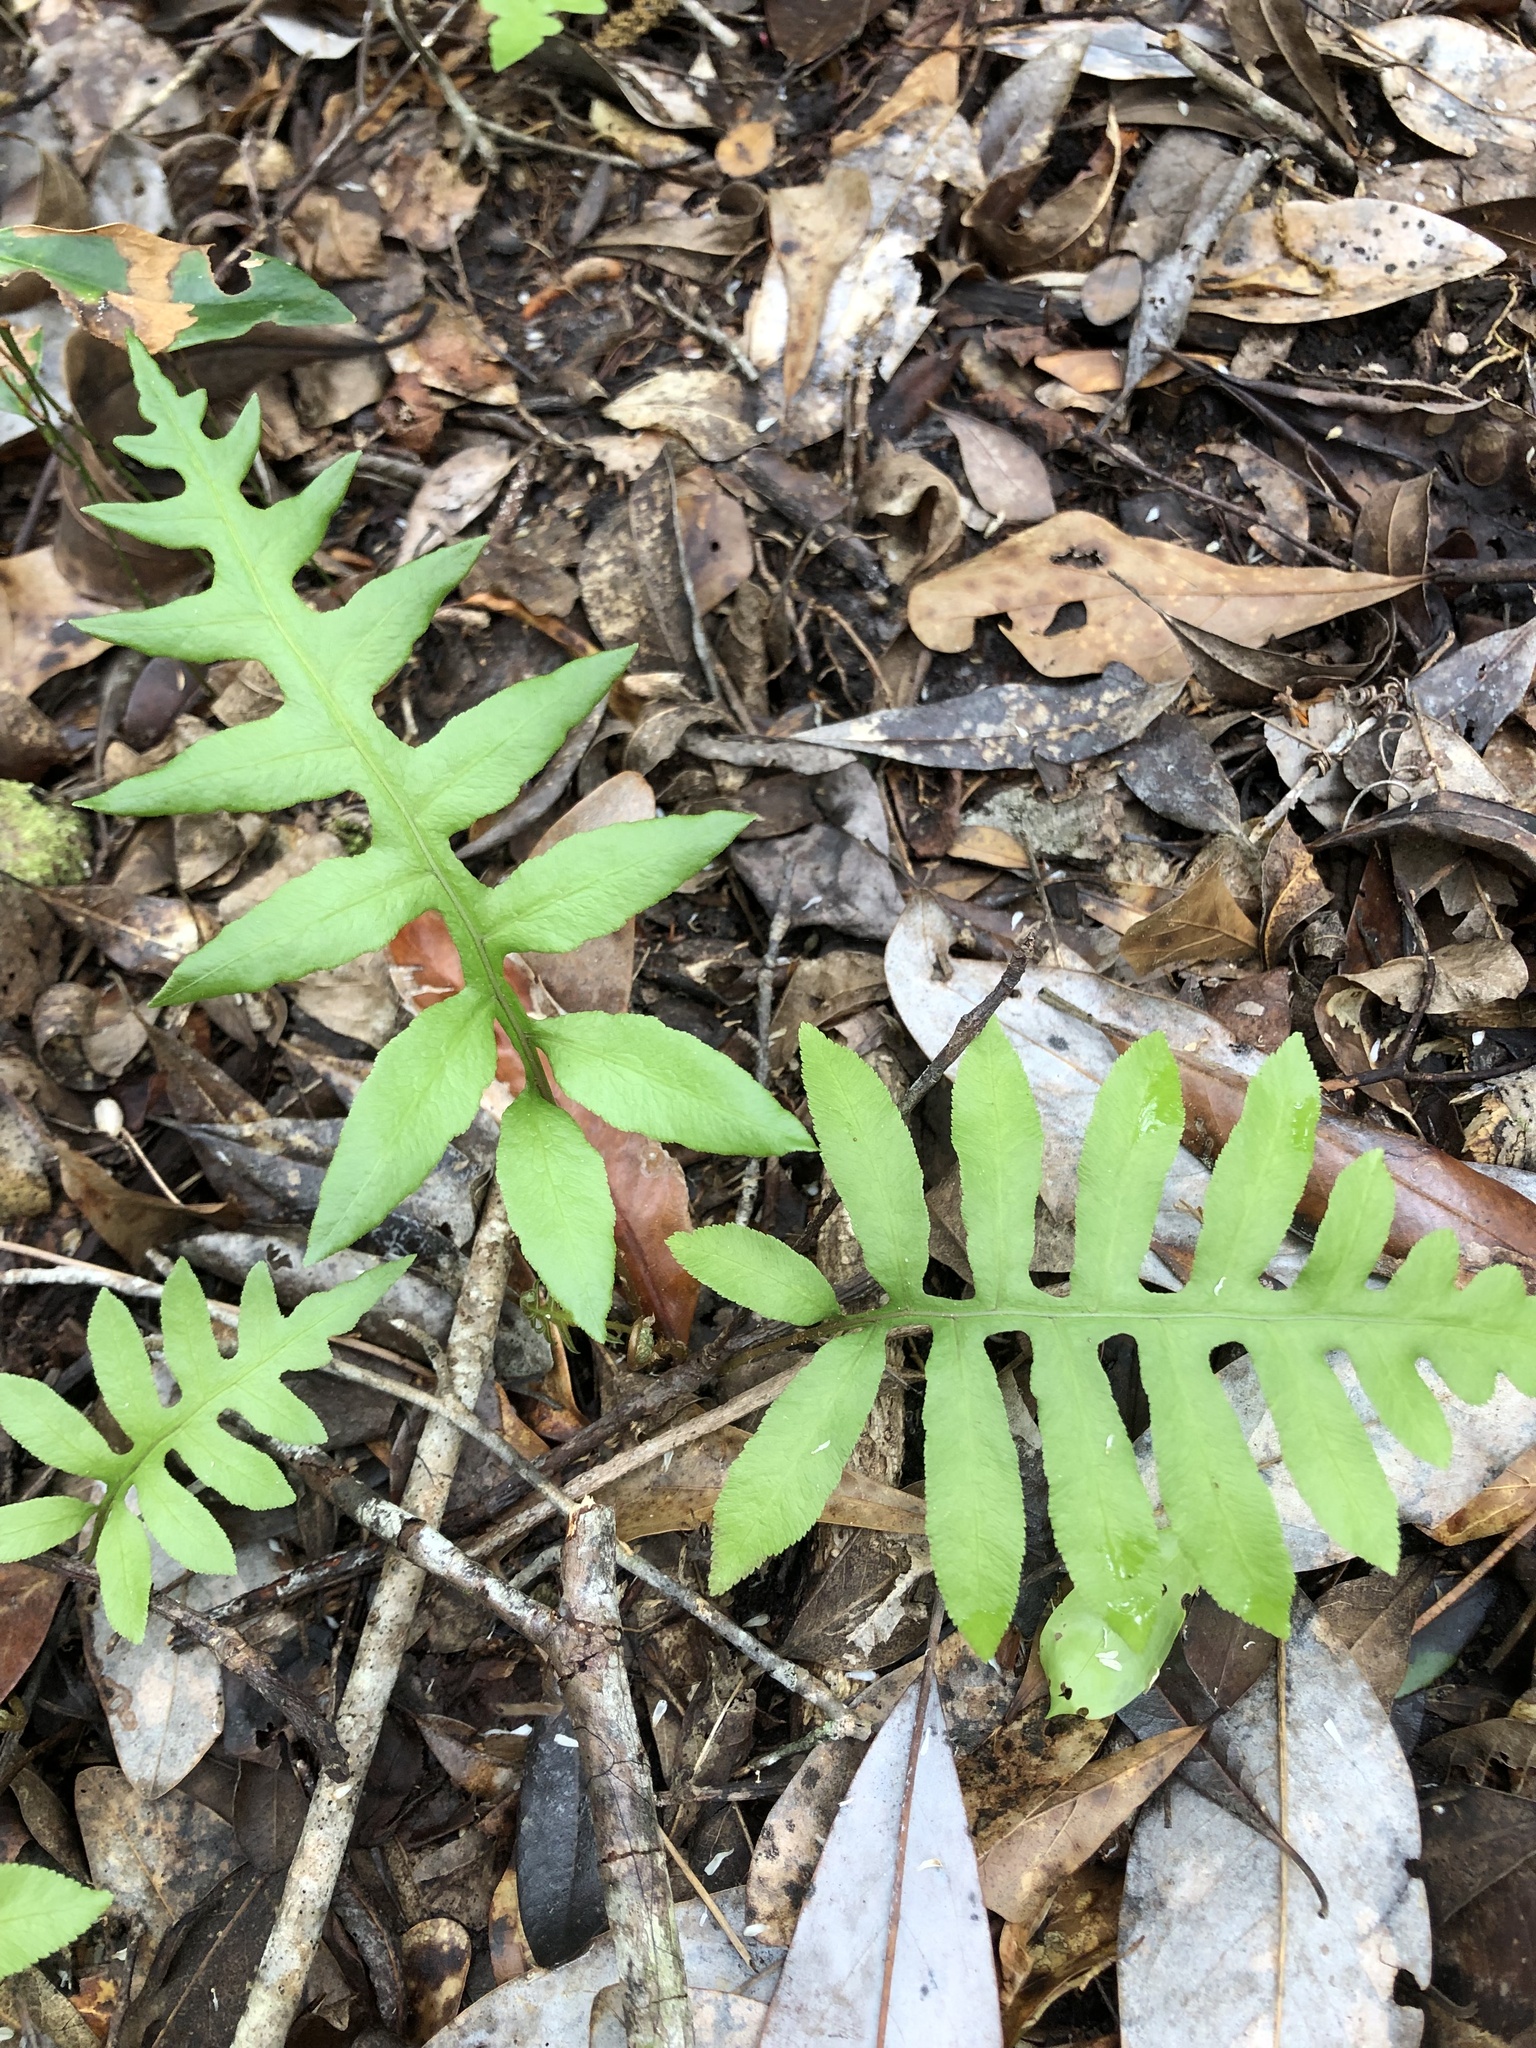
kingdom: Plantae
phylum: Tracheophyta
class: Polypodiopsida
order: Polypodiales
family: Blechnaceae
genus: Lorinseria
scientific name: Lorinseria areolata
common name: Dwarf chain fern
